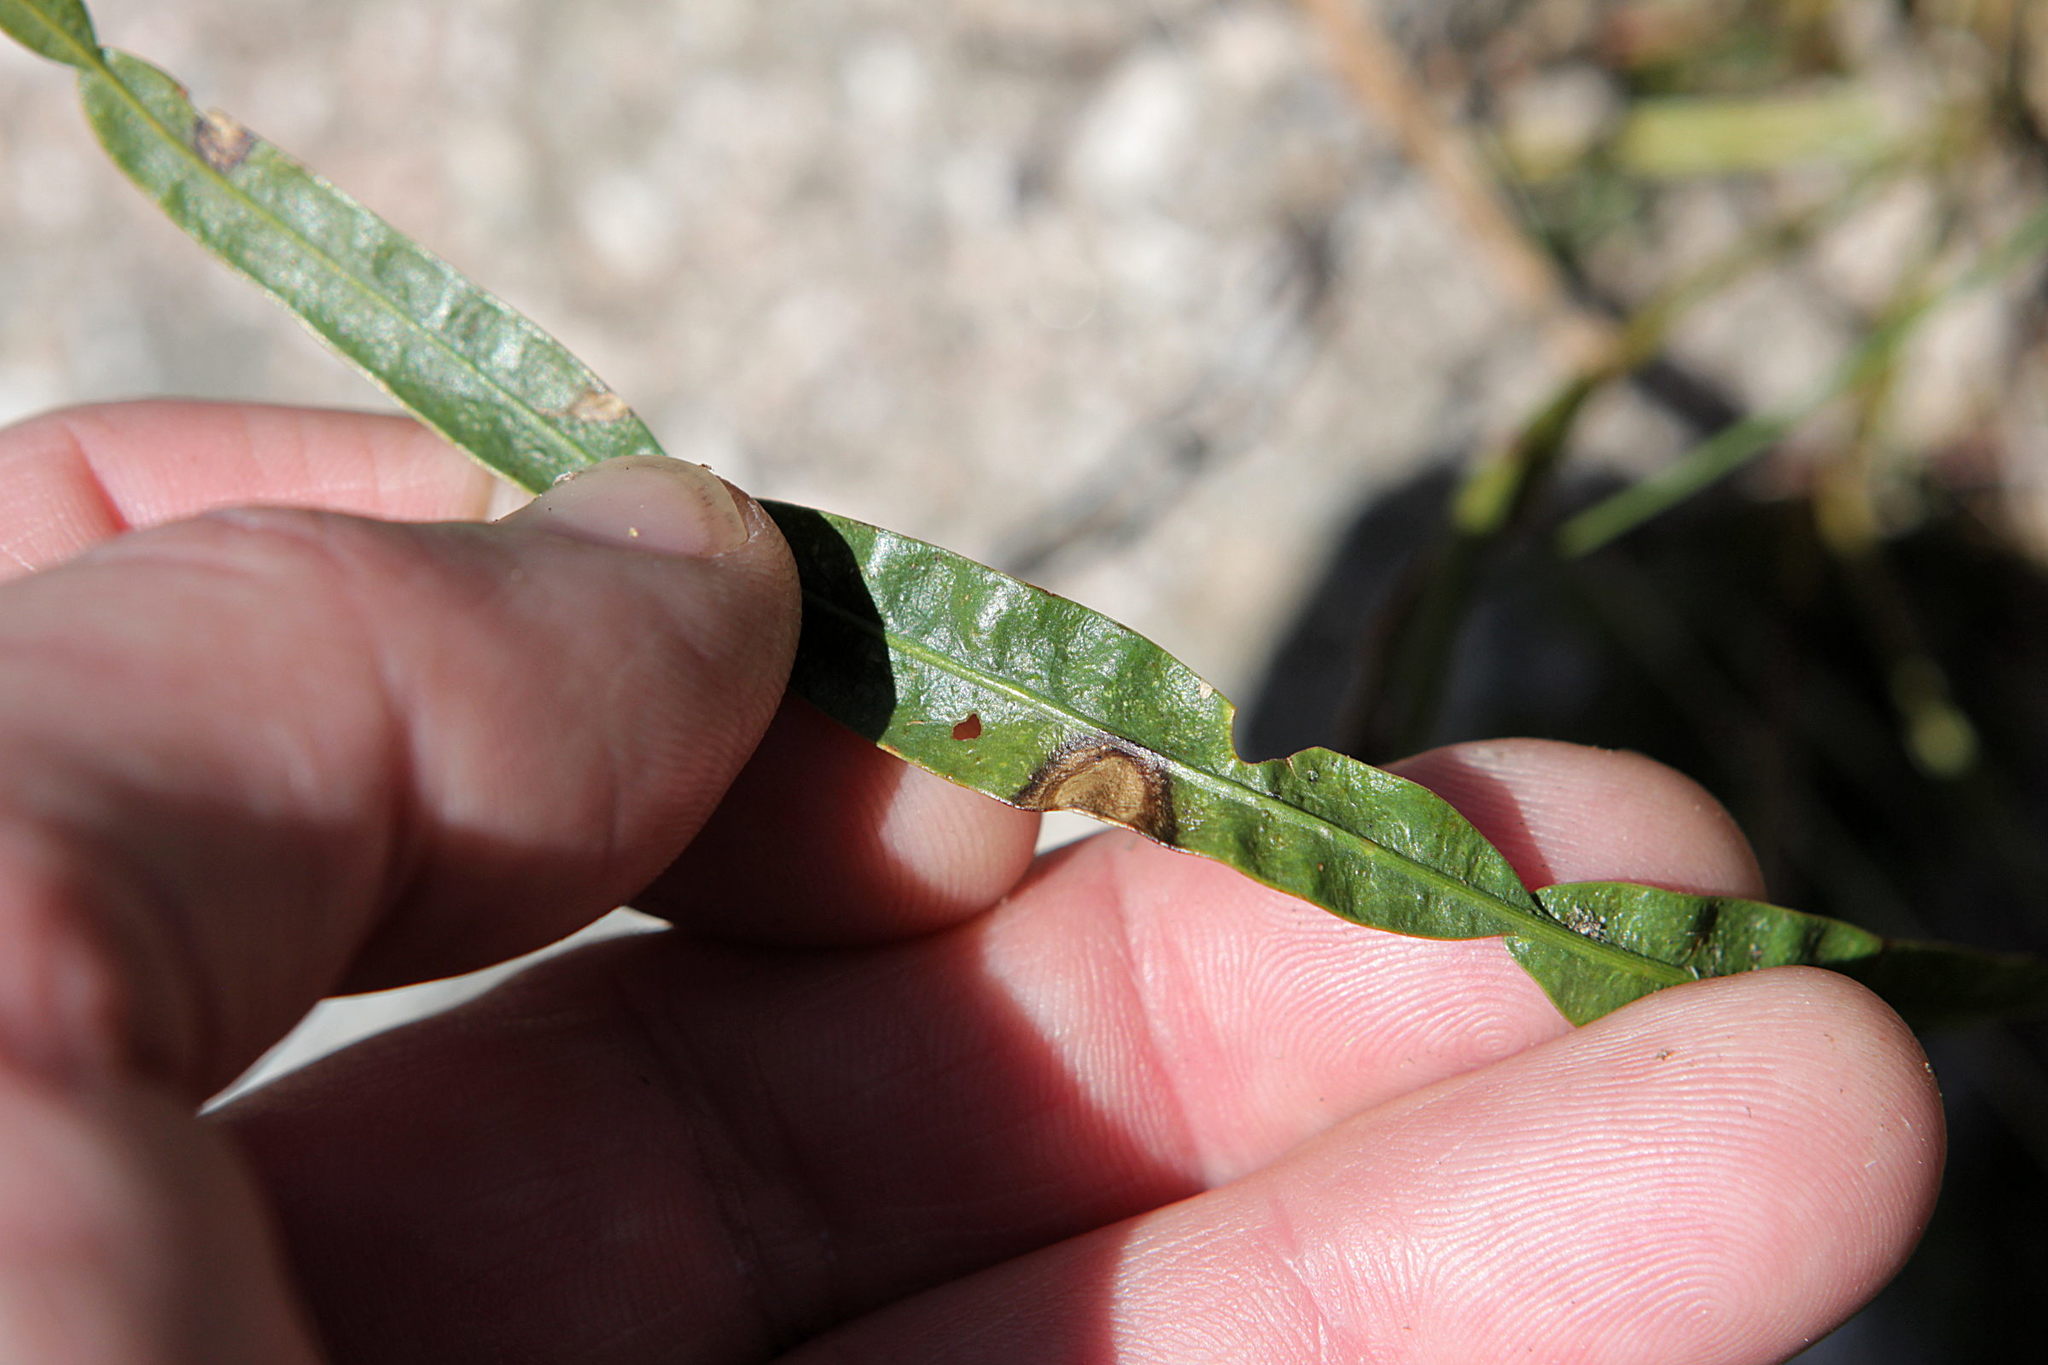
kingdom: Plantae
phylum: Tracheophyta
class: Magnoliopsida
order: Fabales
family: Fabaceae
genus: Genista
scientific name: Genista sagittalis
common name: Winged greenweed
